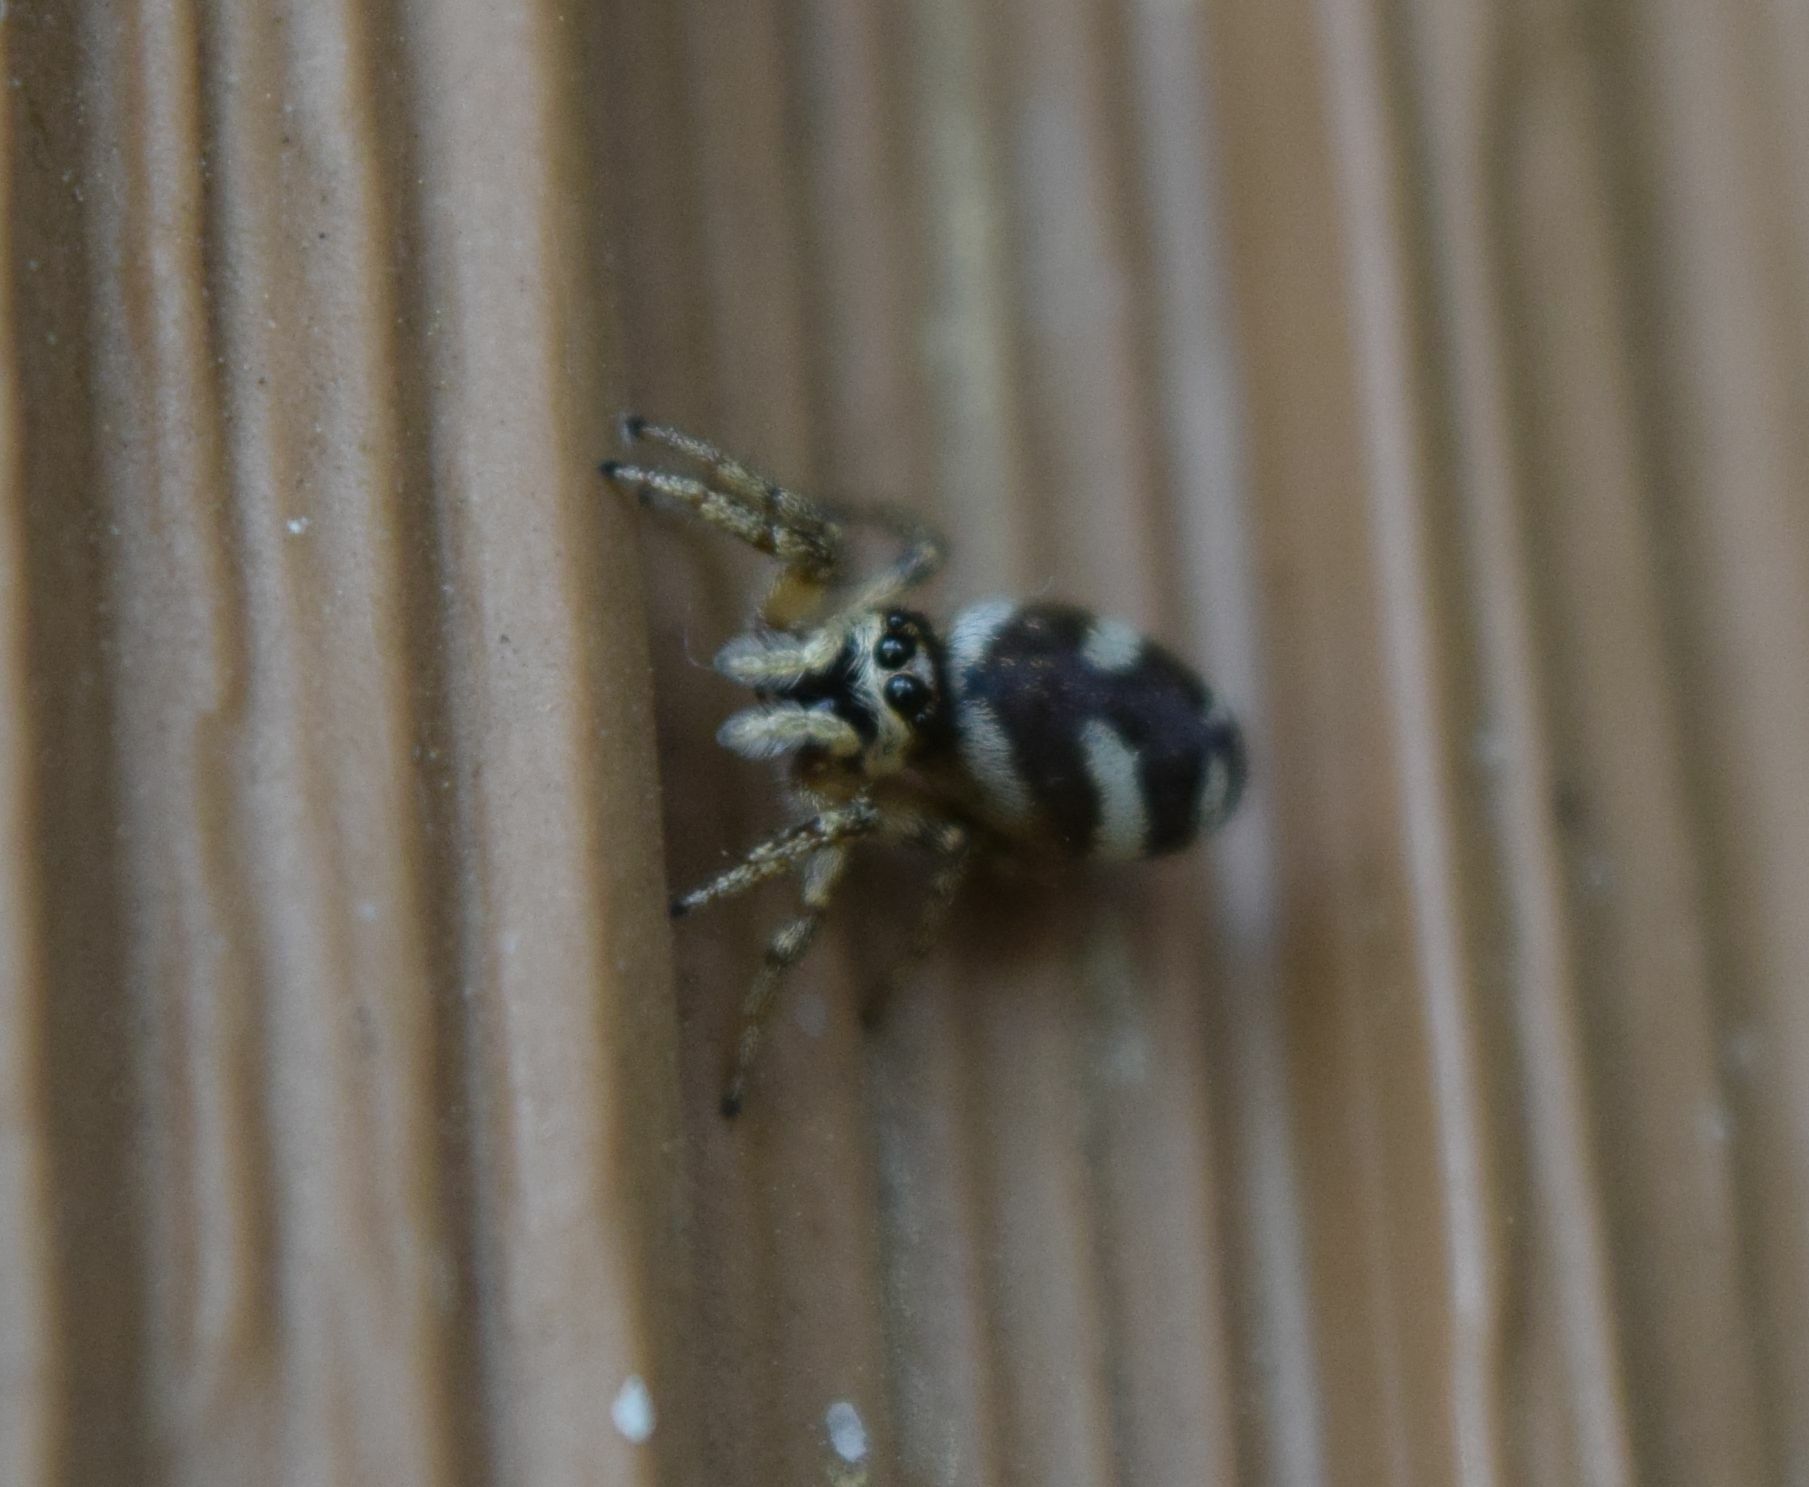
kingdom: Animalia
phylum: Arthropoda
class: Arachnida
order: Araneae
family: Salticidae
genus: Salticus
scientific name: Salticus scenicus
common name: Zebra jumper
